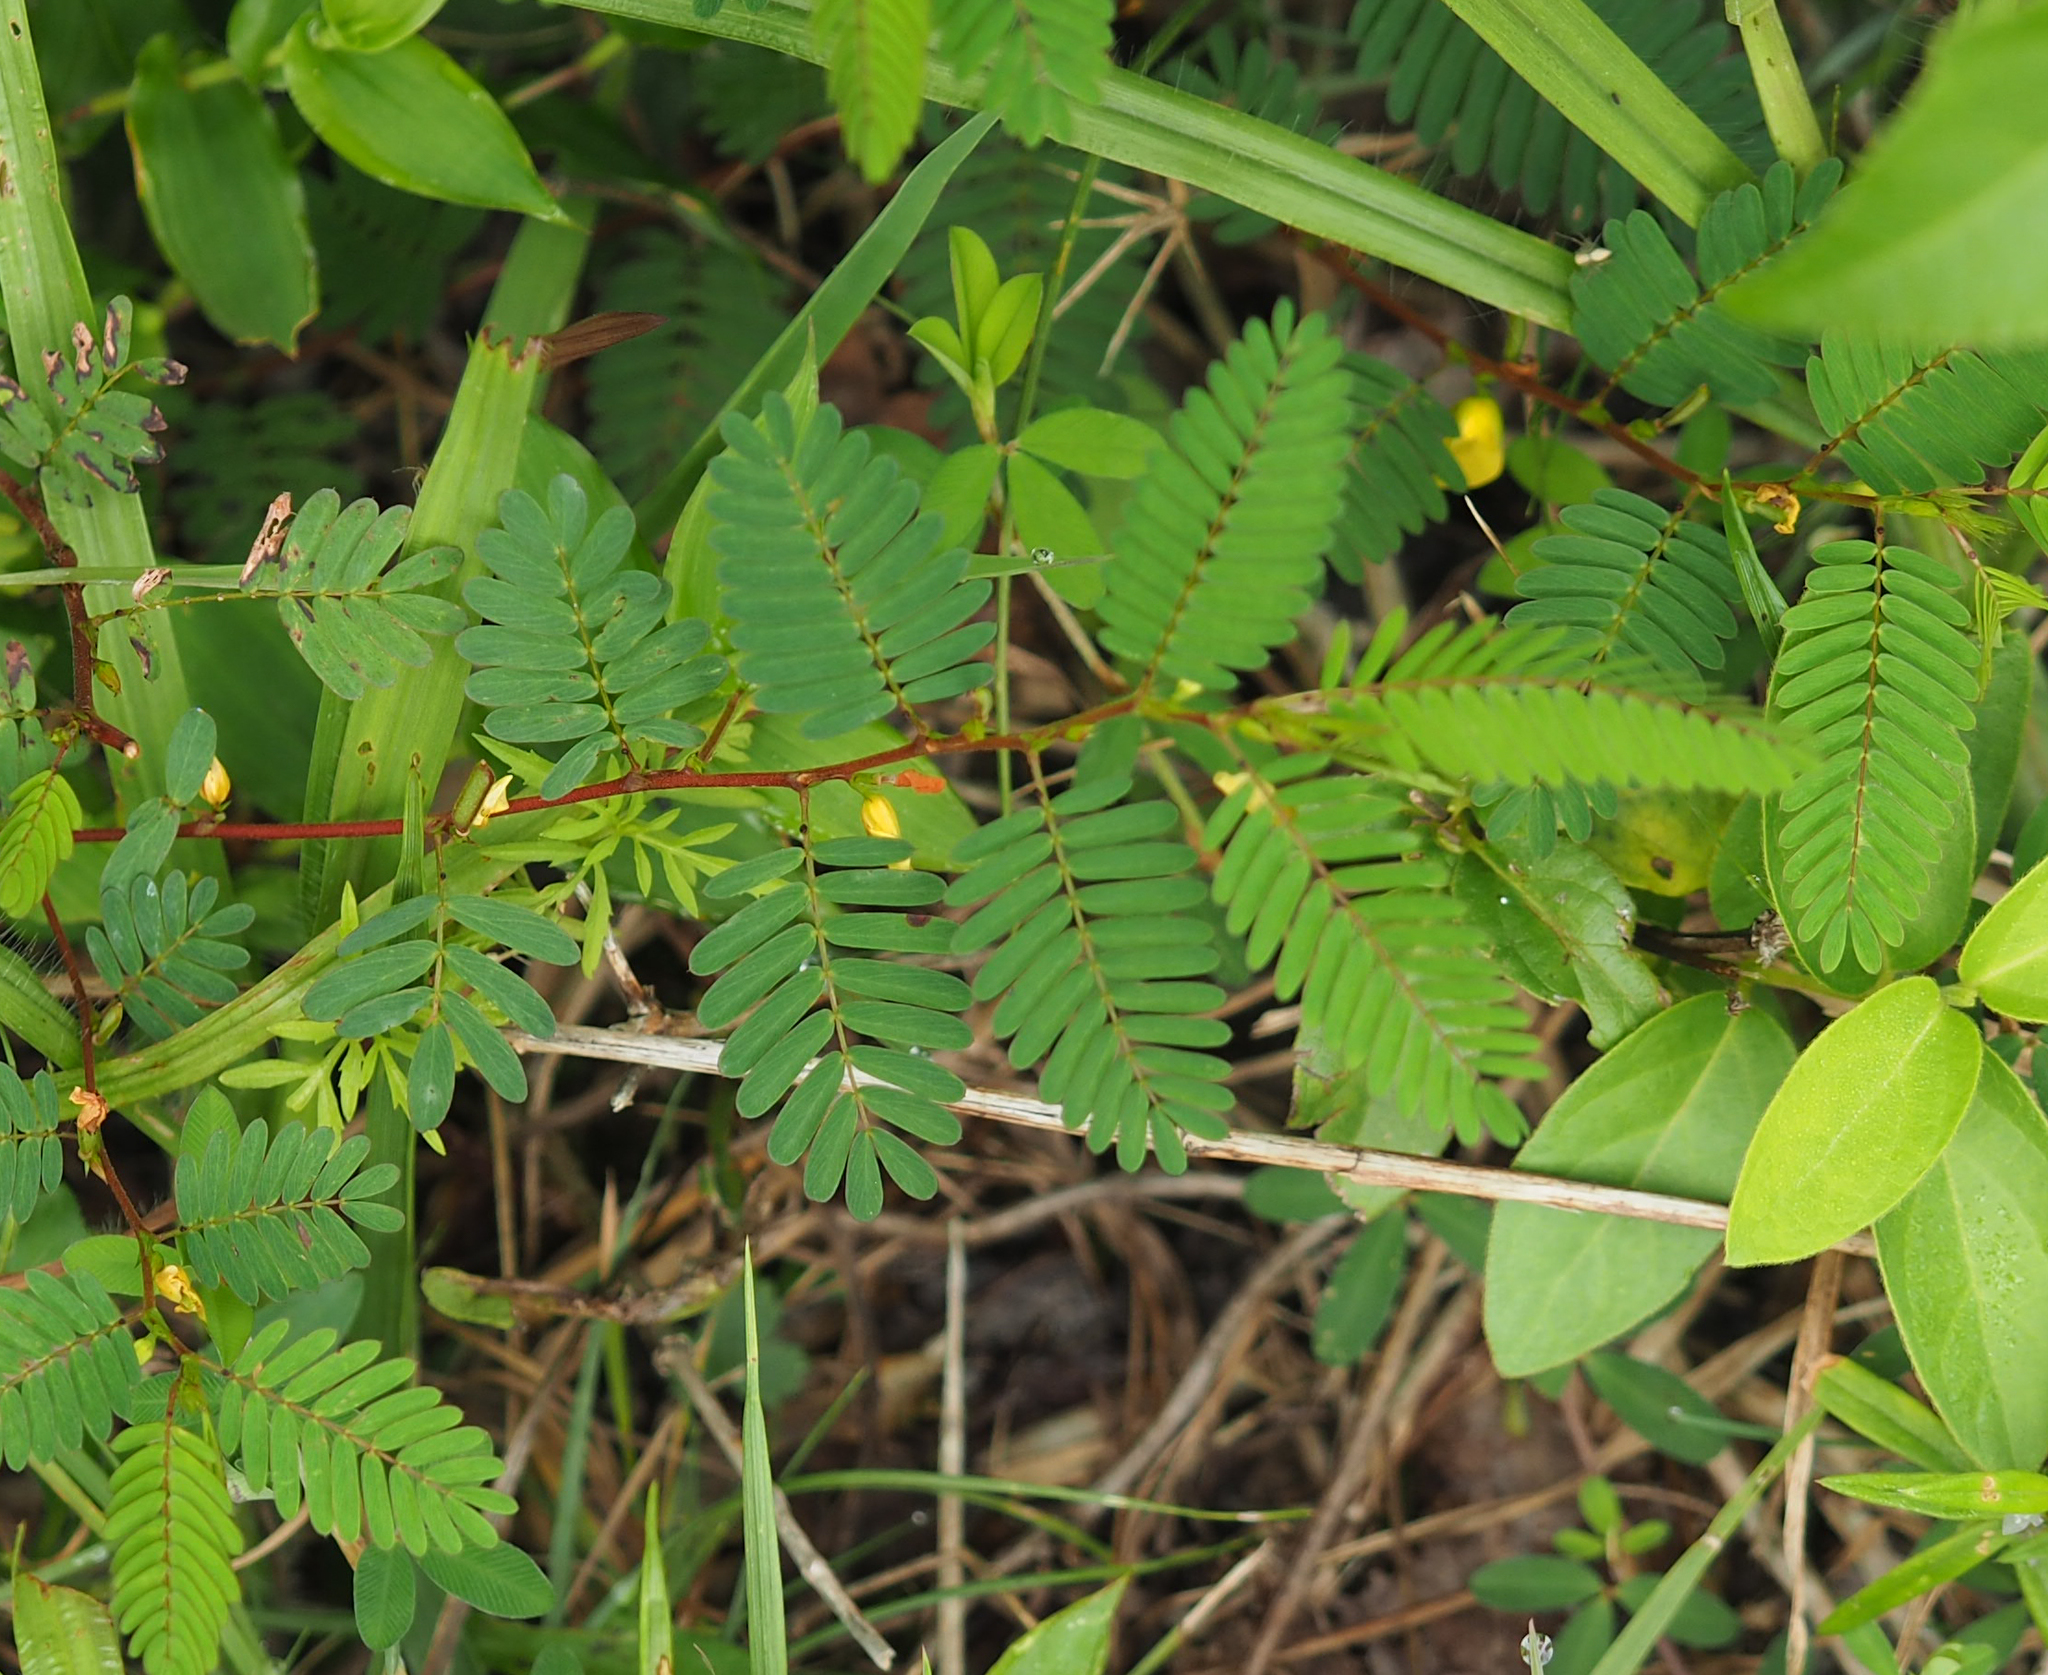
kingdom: Plantae
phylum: Tracheophyta
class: Magnoliopsida
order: Fabales
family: Fabaceae
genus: Chamaecrista
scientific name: Chamaecrista nictitans
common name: Sensitive cassia
